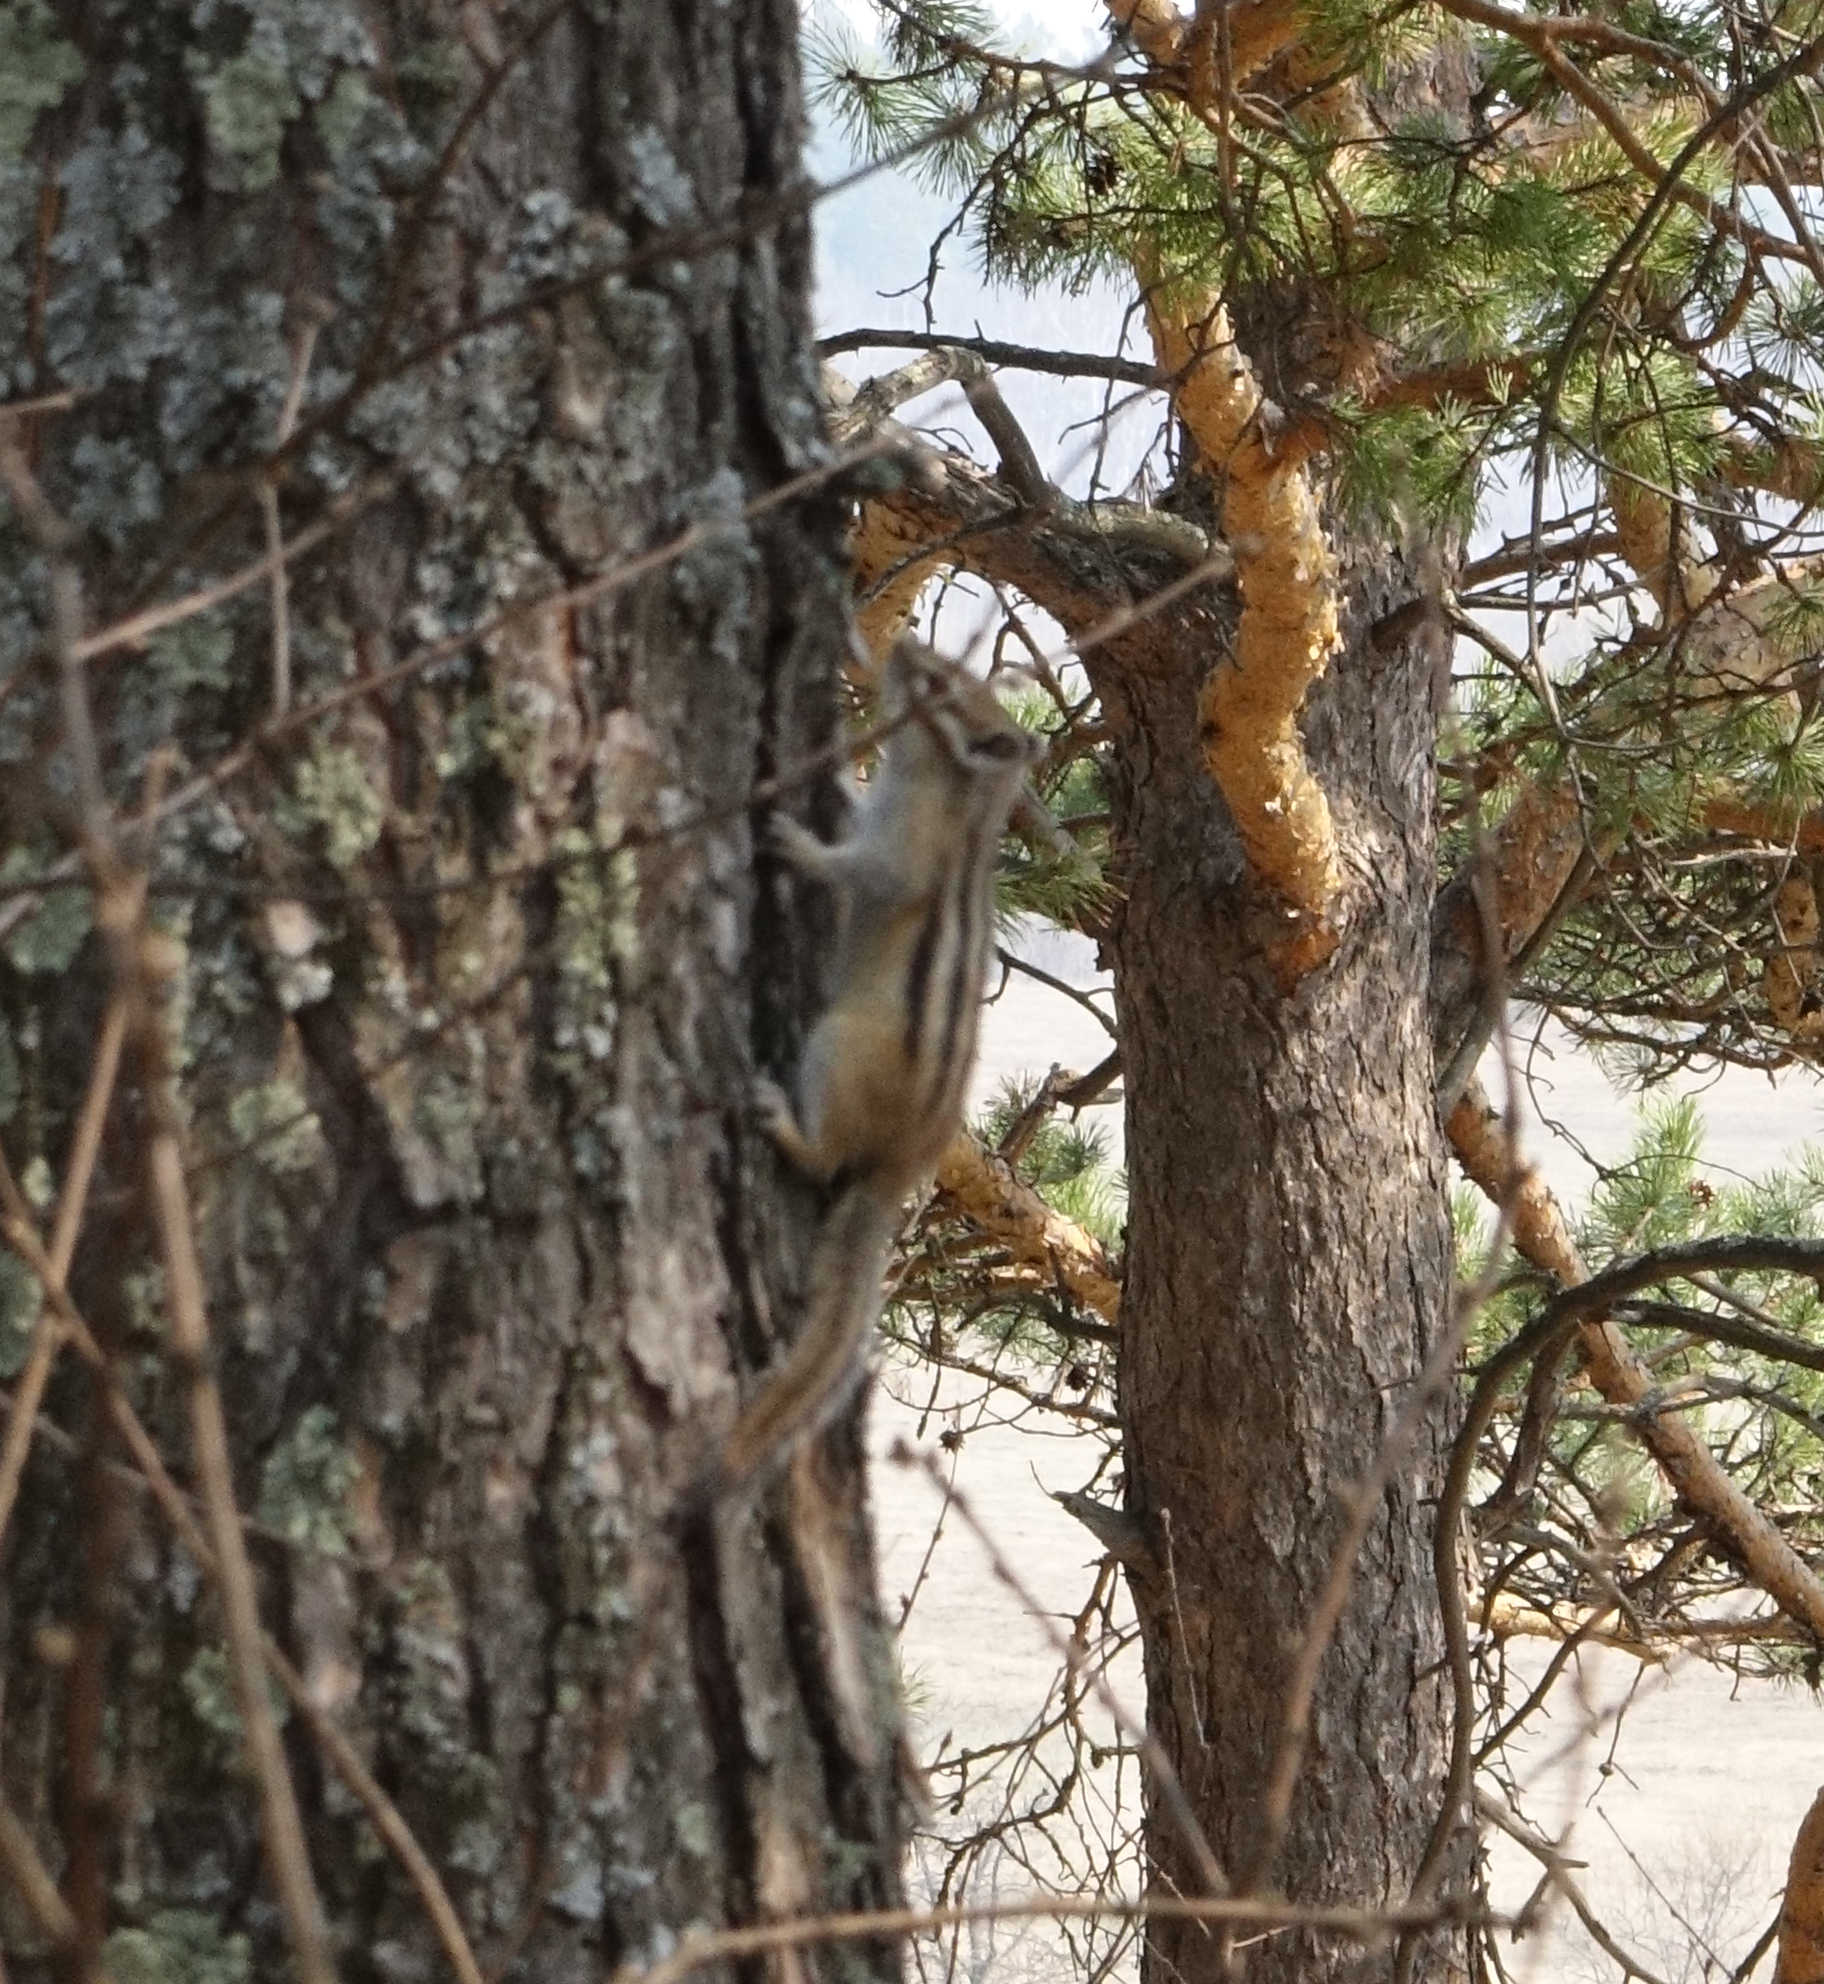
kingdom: Animalia
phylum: Chordata
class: Mammalia
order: Rodentia
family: Sciuridae
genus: Tamias
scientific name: Tamias sibiricus
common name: Siberian chipmunk
